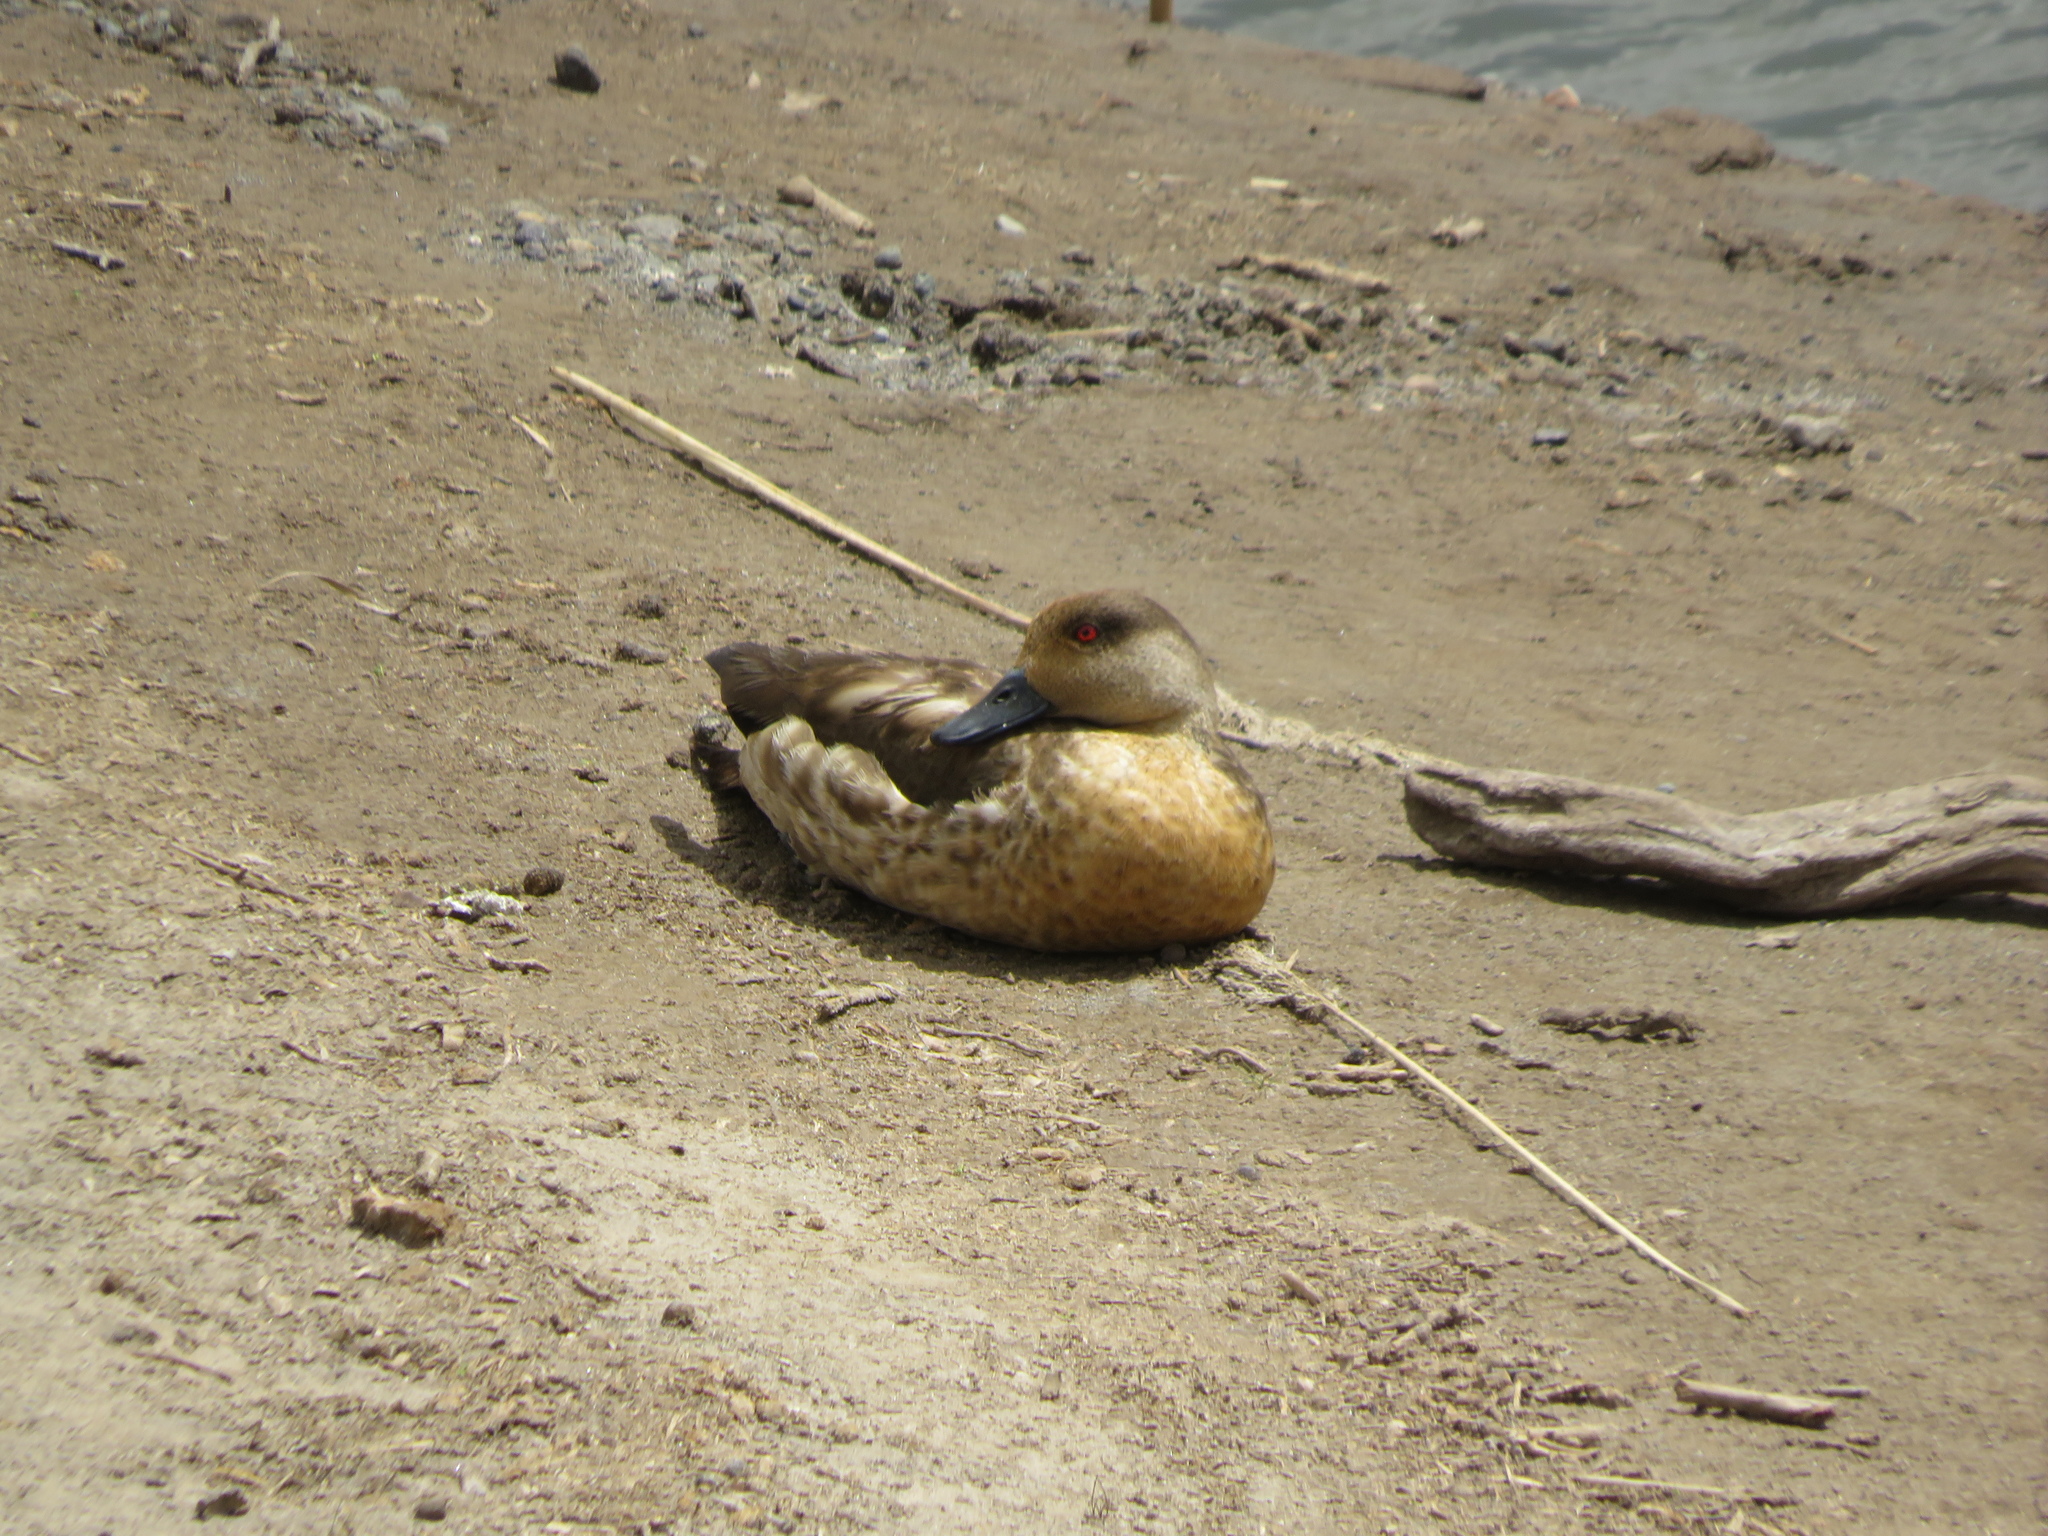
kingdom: Animalia
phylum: Chordata
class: Aves
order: Anseriformes
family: Anatidae
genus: Lophonetta
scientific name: Lophonetta specularioides
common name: Crested duck
